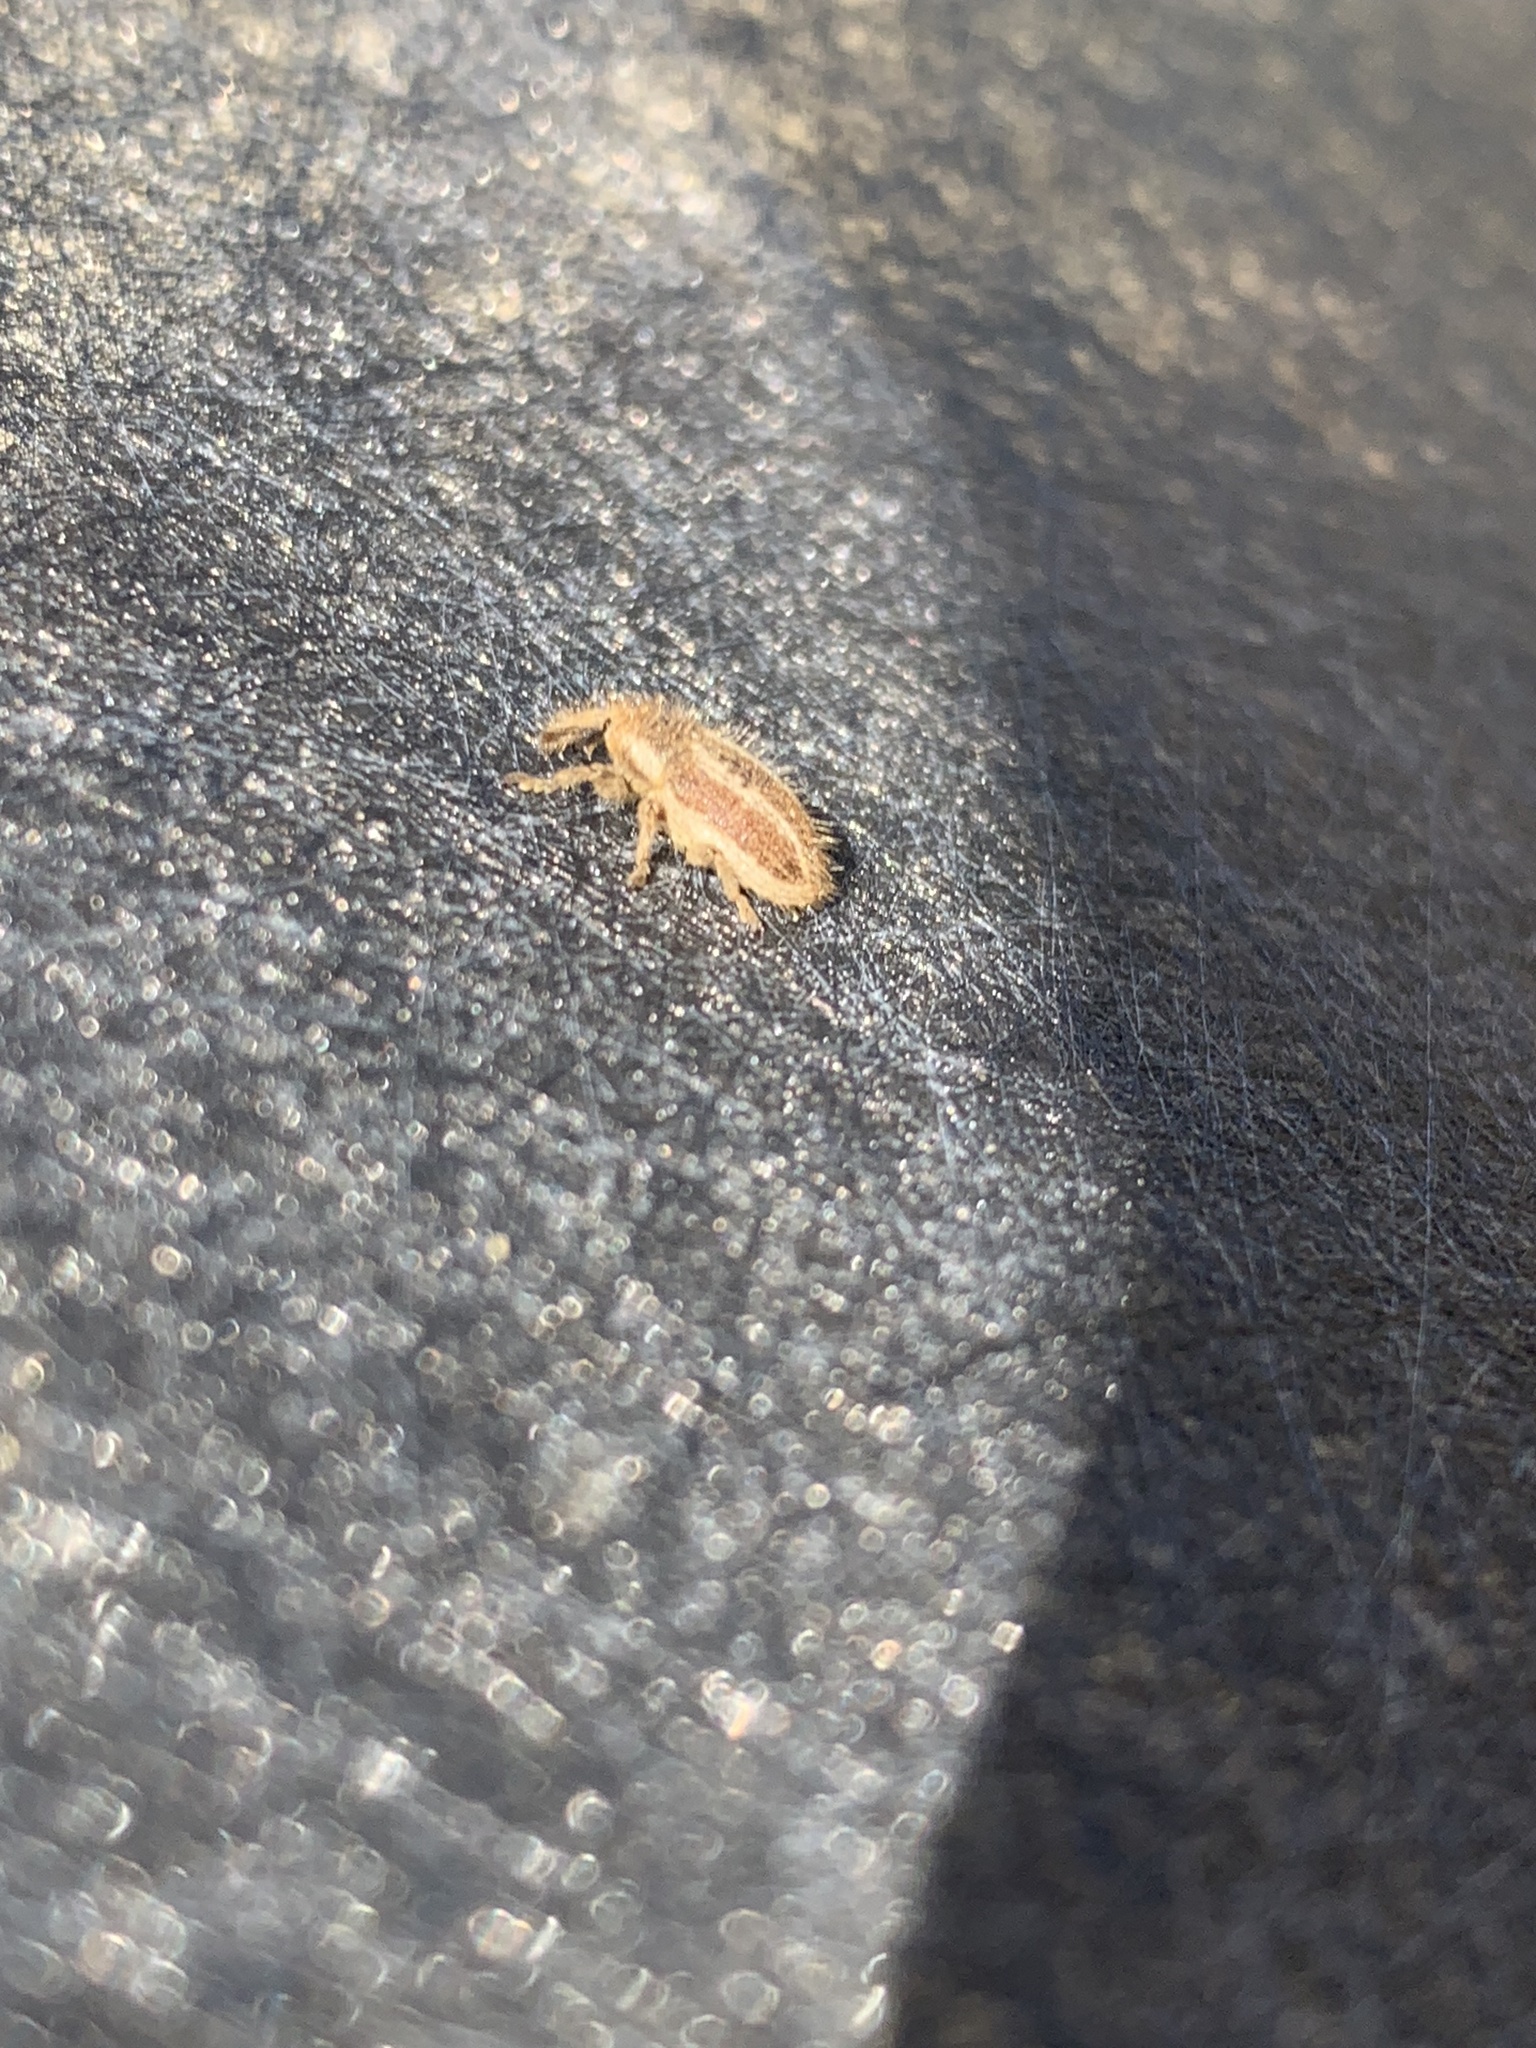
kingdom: Animalia
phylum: Arthropoda
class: Insecta
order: Coleoptera
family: Curculionidae
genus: Larinus
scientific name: Larinus villosus
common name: Yellow starthistle hairy weevil
